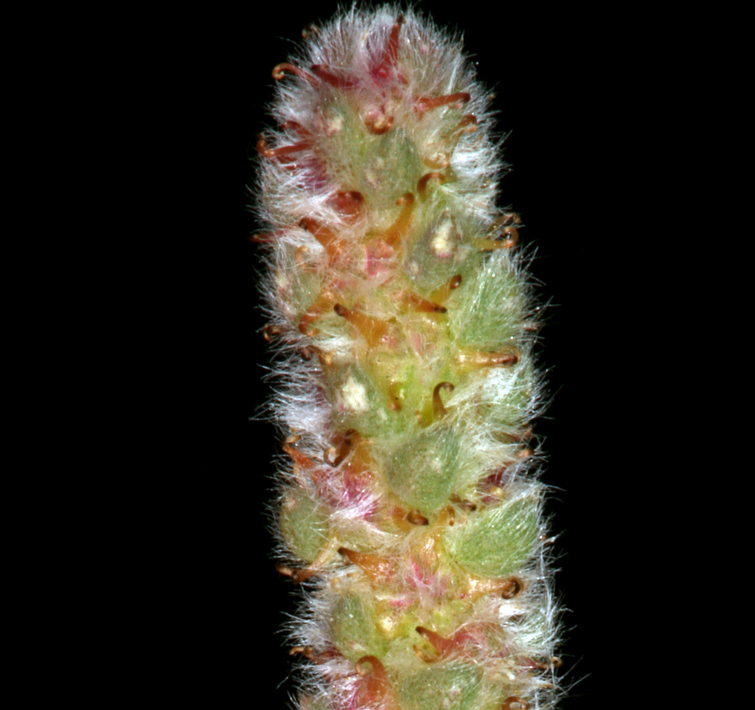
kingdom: Plantae
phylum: Tracheophyta
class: Magnoliopsida
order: Caryophyllales
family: Amaranthaceae
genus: Bassia
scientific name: Bassia hyssopifolia
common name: Fivehorn smotherweed
